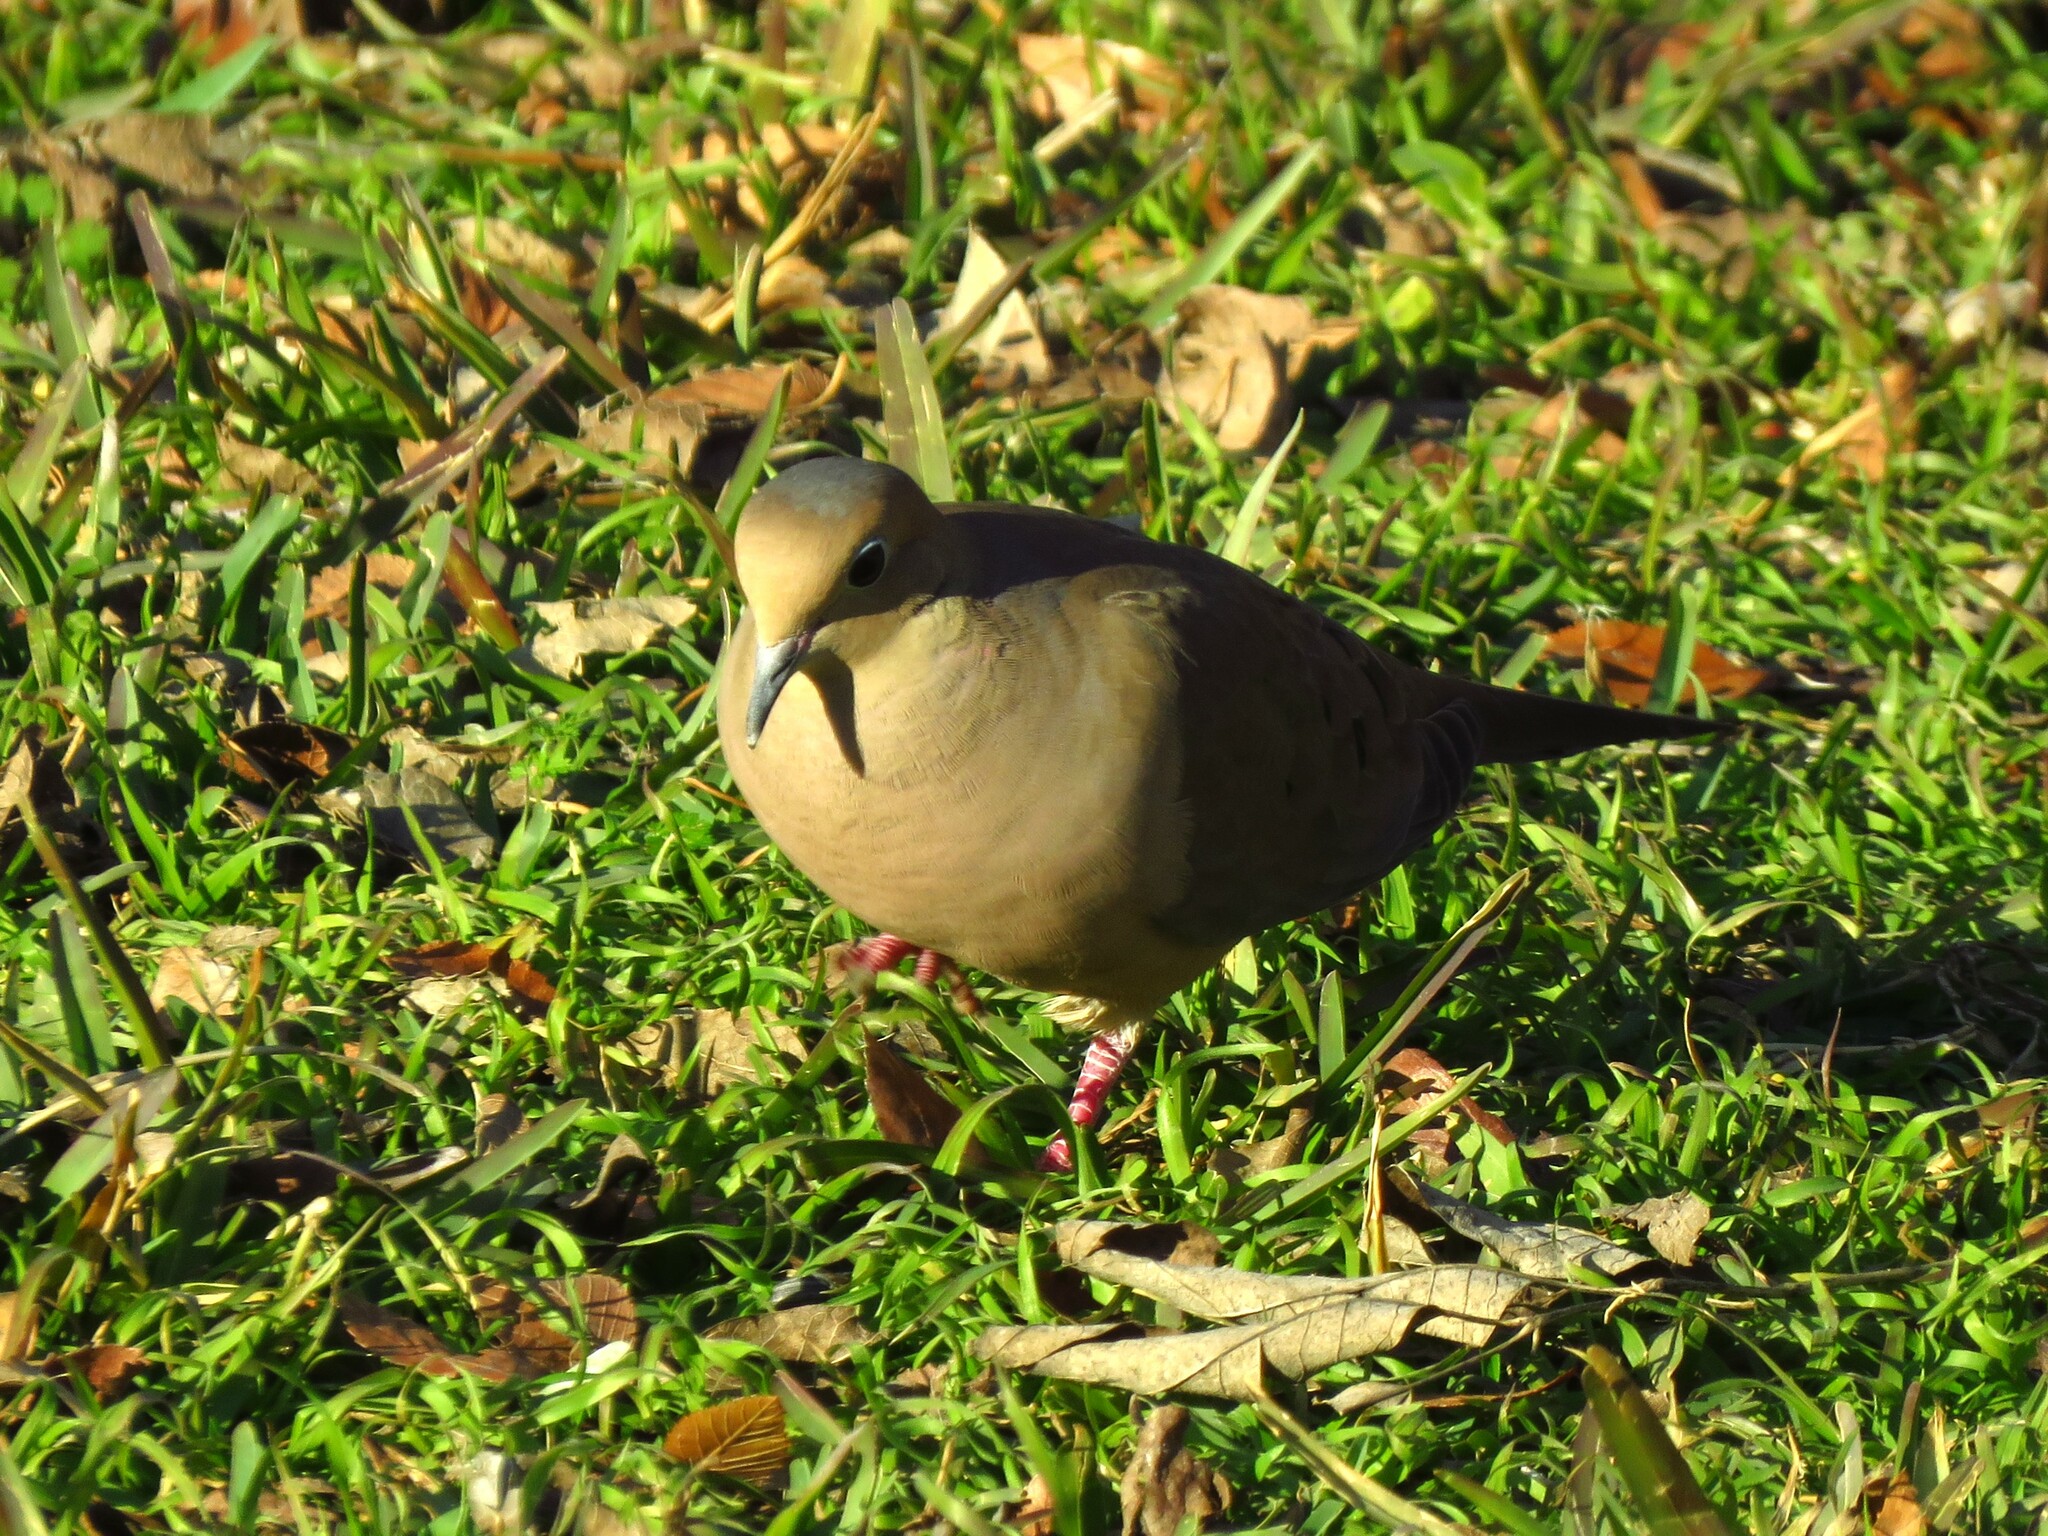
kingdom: Animalia
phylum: Chordata
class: Aves
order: Columbiformes
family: Columbidae
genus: Zenaida
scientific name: Zenaida macroura
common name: Mourning dove
